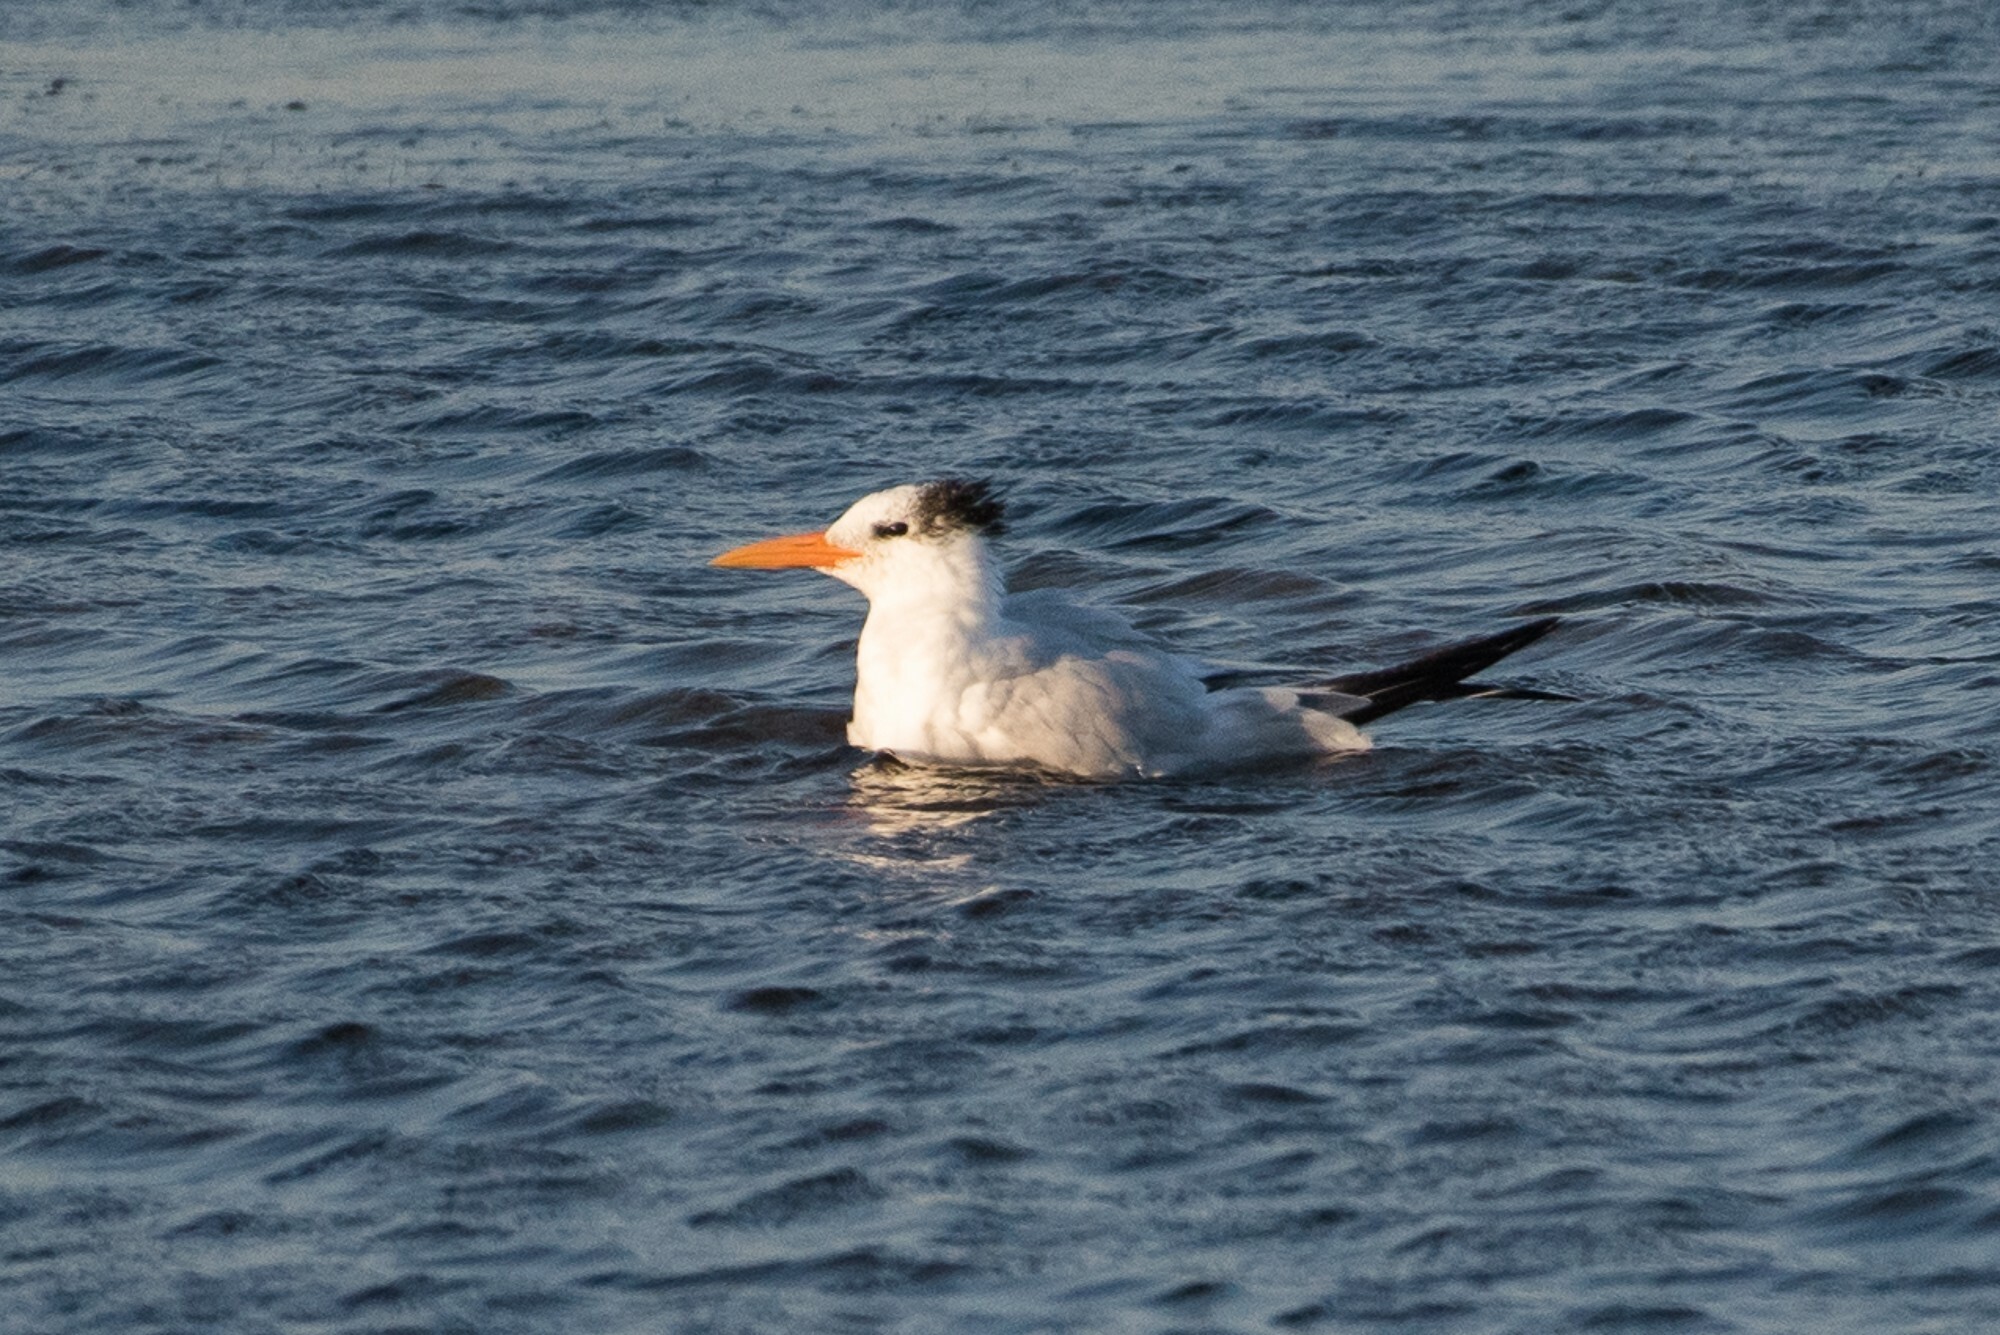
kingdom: Animalia
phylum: Chordata
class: Aves
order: Charadriiformes
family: Laridae
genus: Thalasseus
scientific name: Thalasseus maximus
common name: Royal tern
